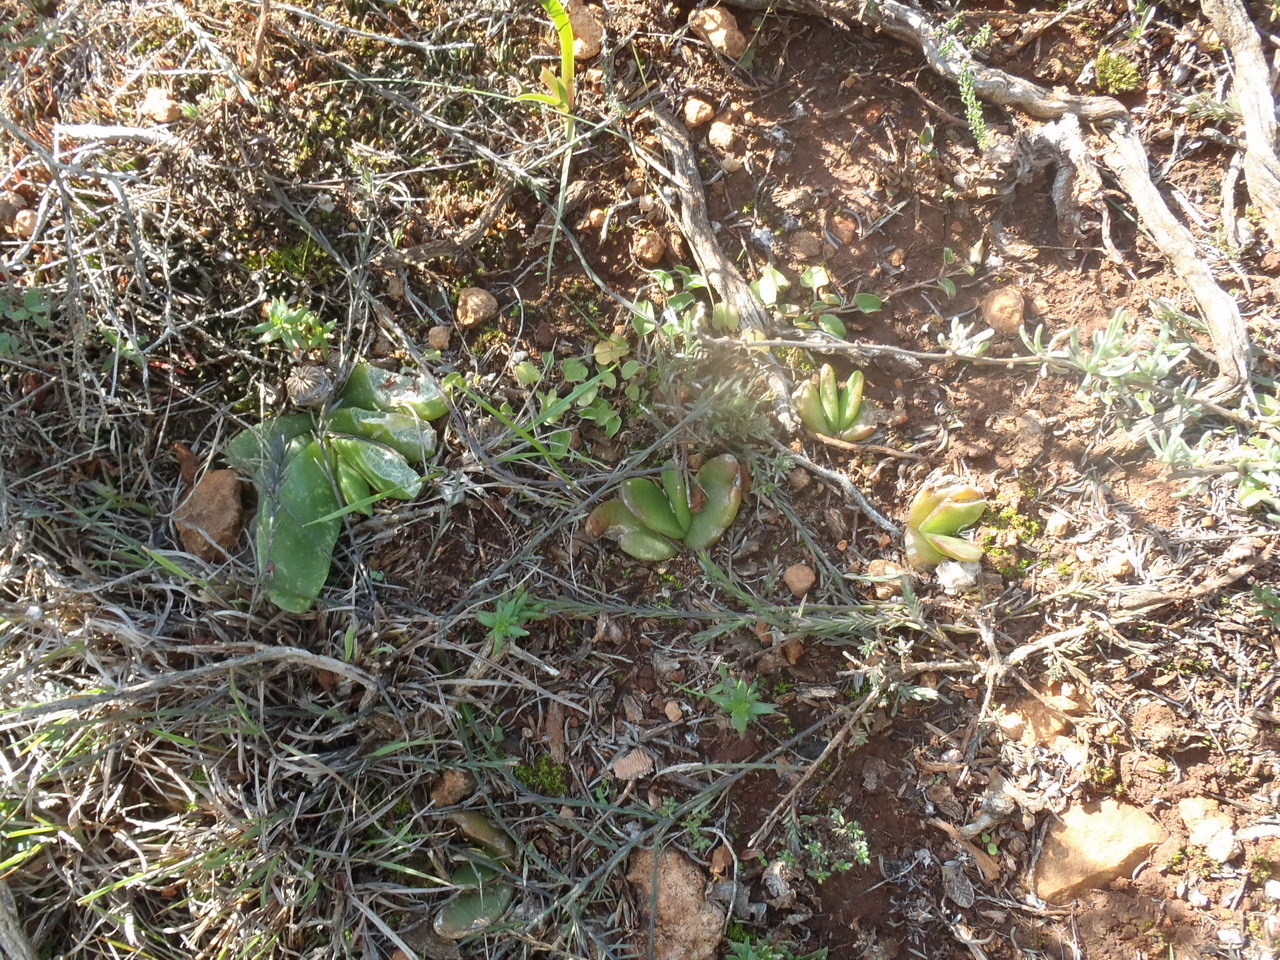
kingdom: Plantae
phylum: Tracheophyta
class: Magnoliopsida
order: Caryophyllales
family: Aizoaceae
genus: Glottiphyllum
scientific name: Glottiphyllum longum
